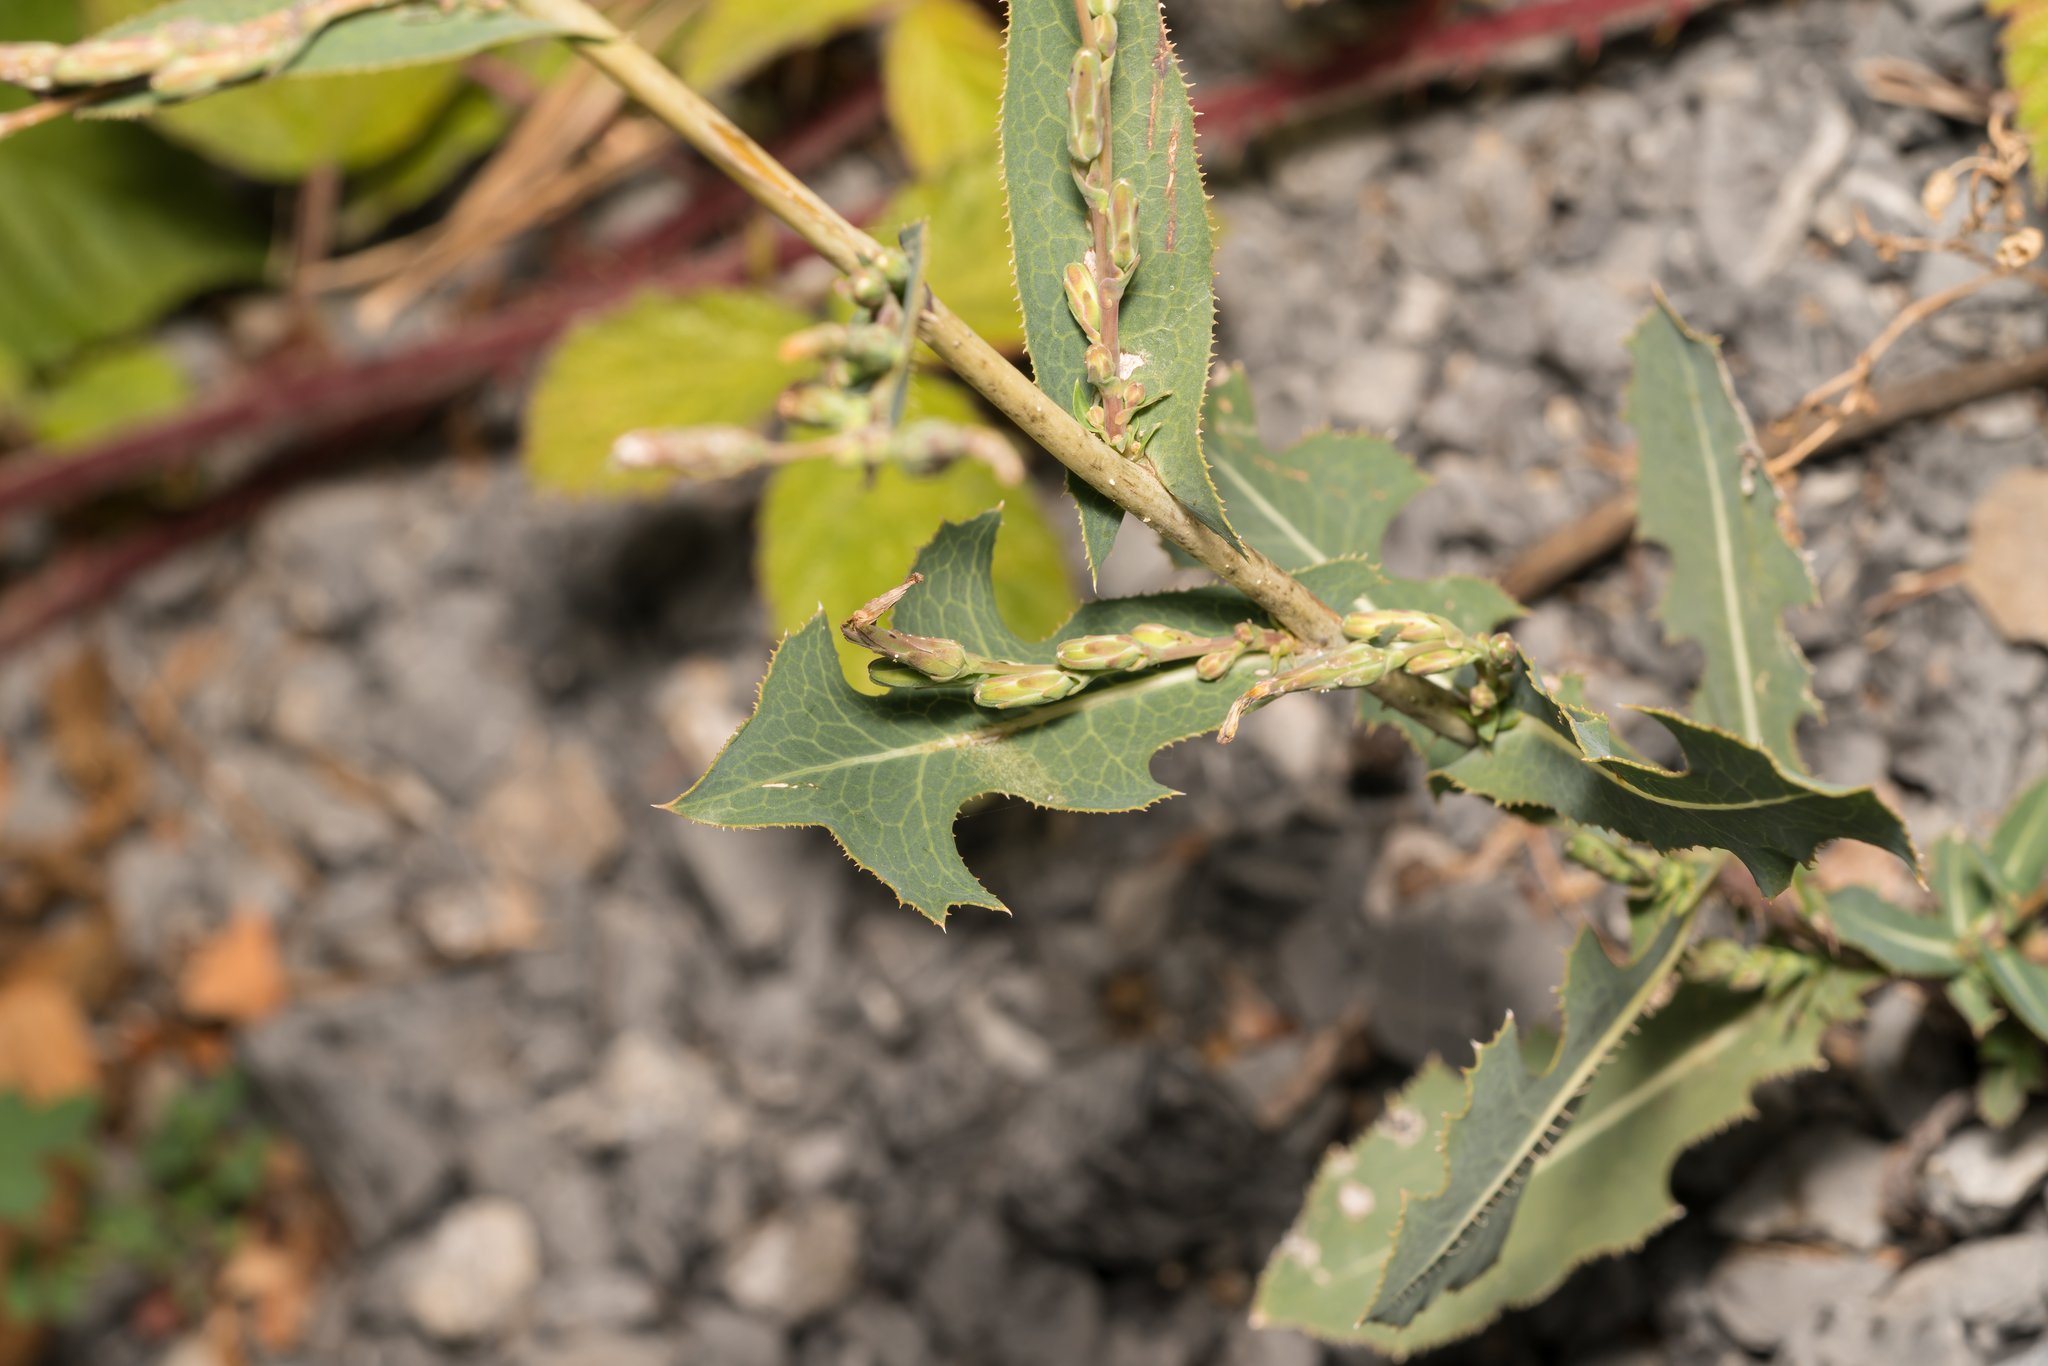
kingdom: Plantae
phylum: Tracheophyta
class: Magnoliopsida
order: Asterales
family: Asteraceae
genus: Lactuca
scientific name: Lactuca serriola
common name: Prickly lettuce
